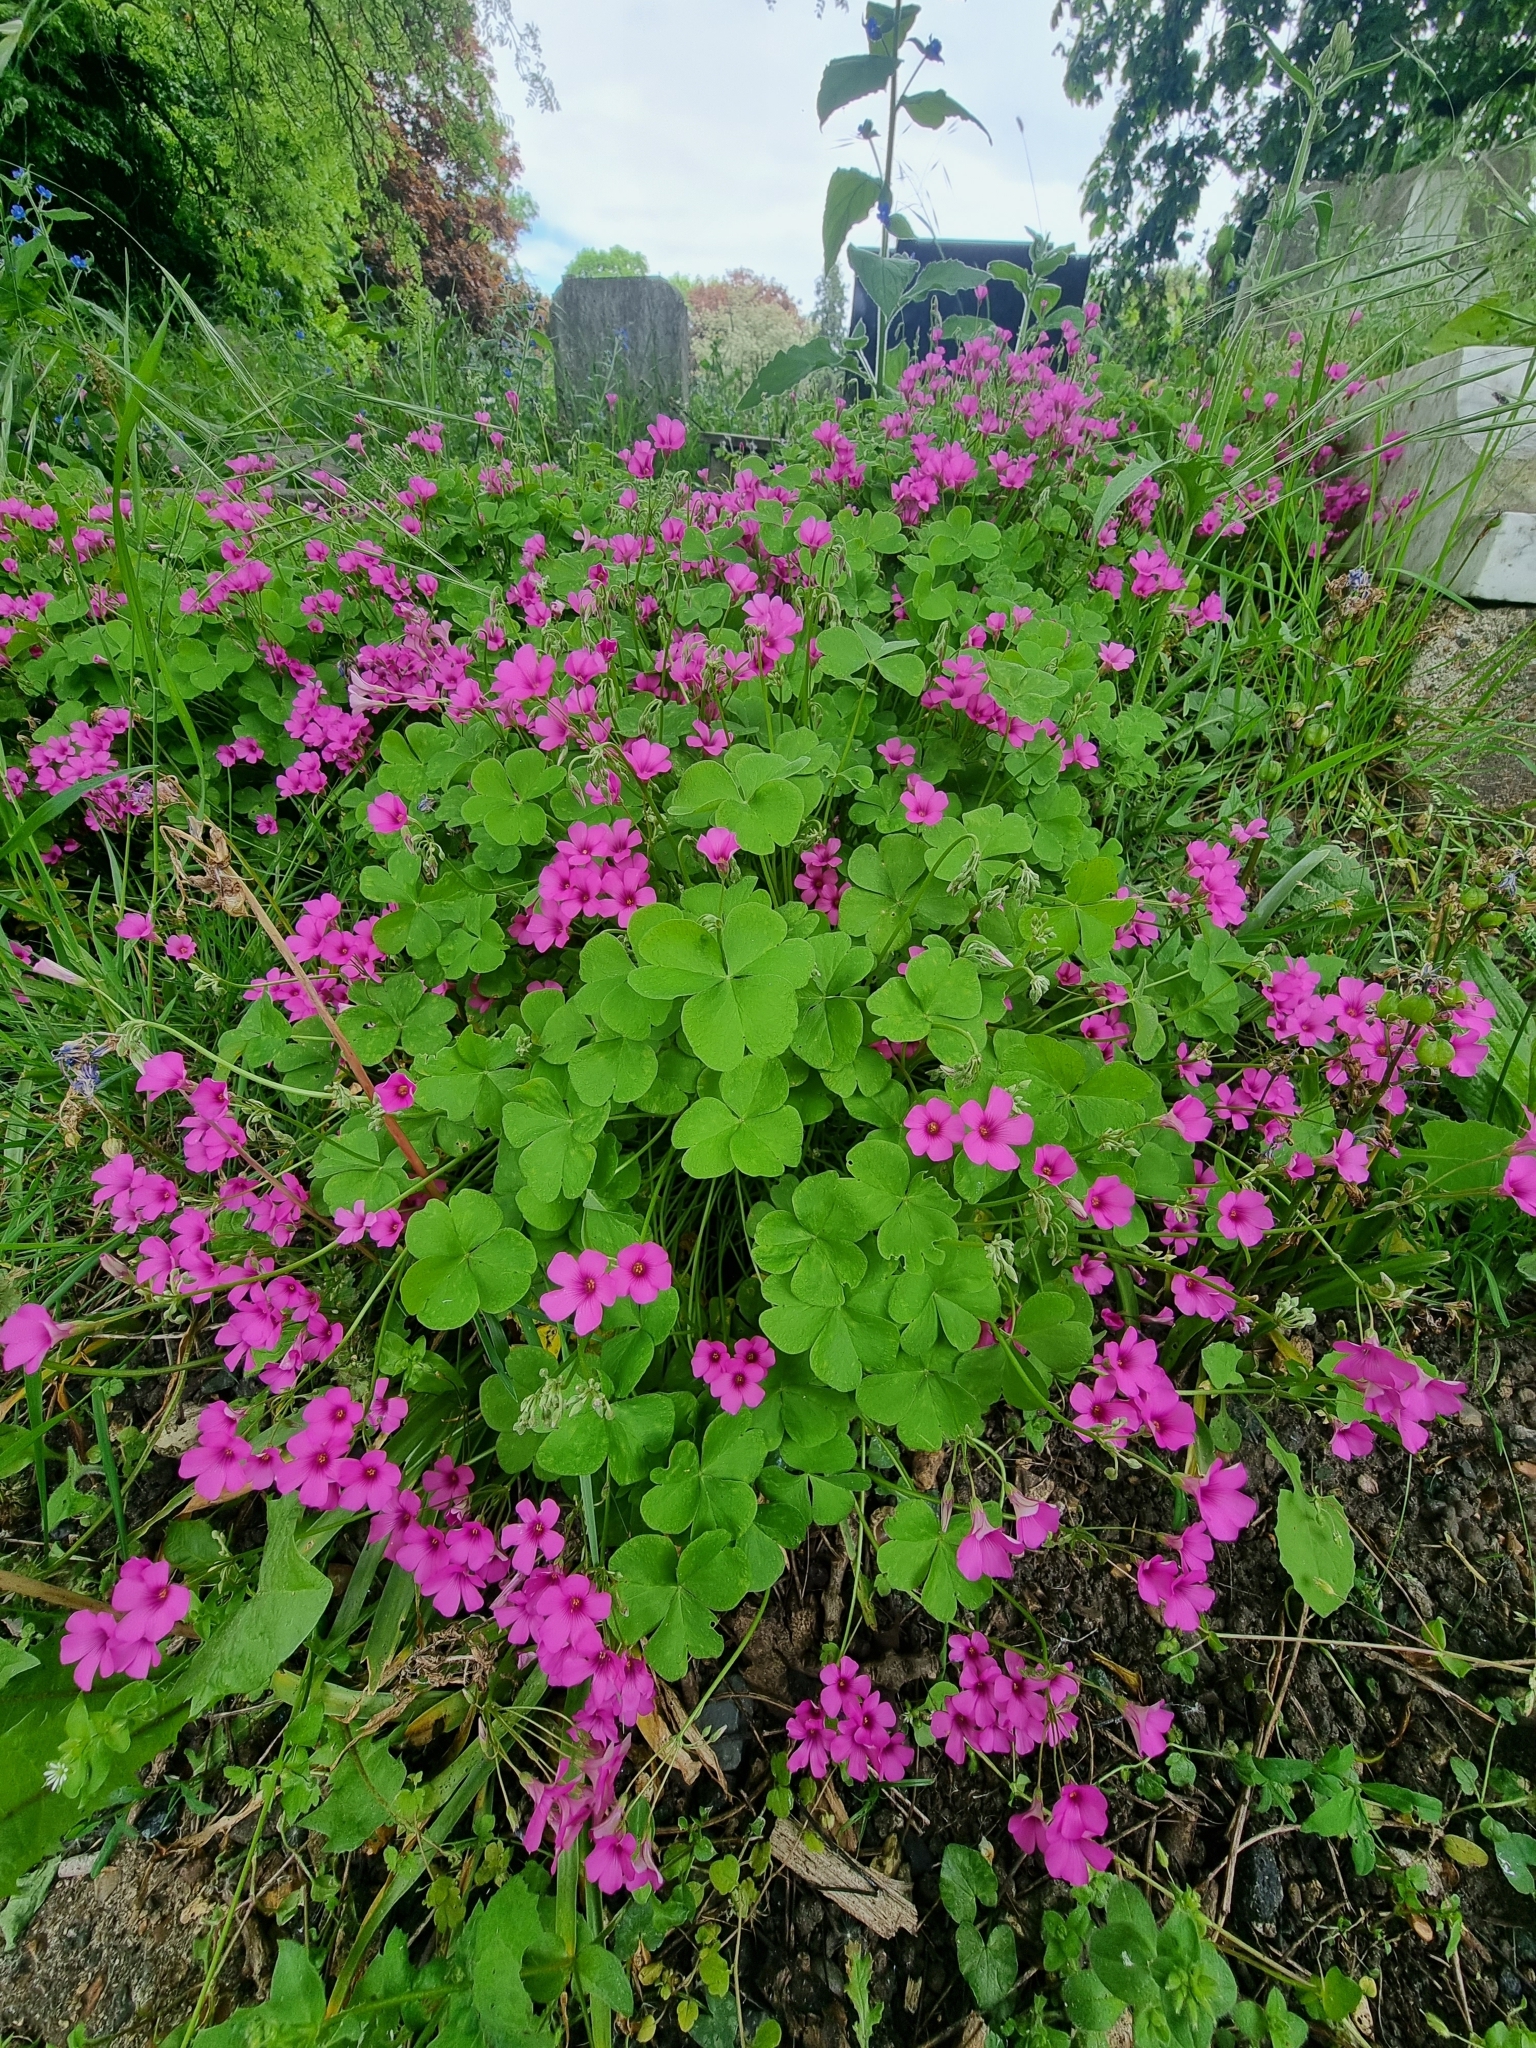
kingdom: Plantae
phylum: Tracheophyta
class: Magnoliopsida
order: Oxalidales
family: Oxalidaceae
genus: Oxalis
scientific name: Oxalis articulata
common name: Pink-sorrel
